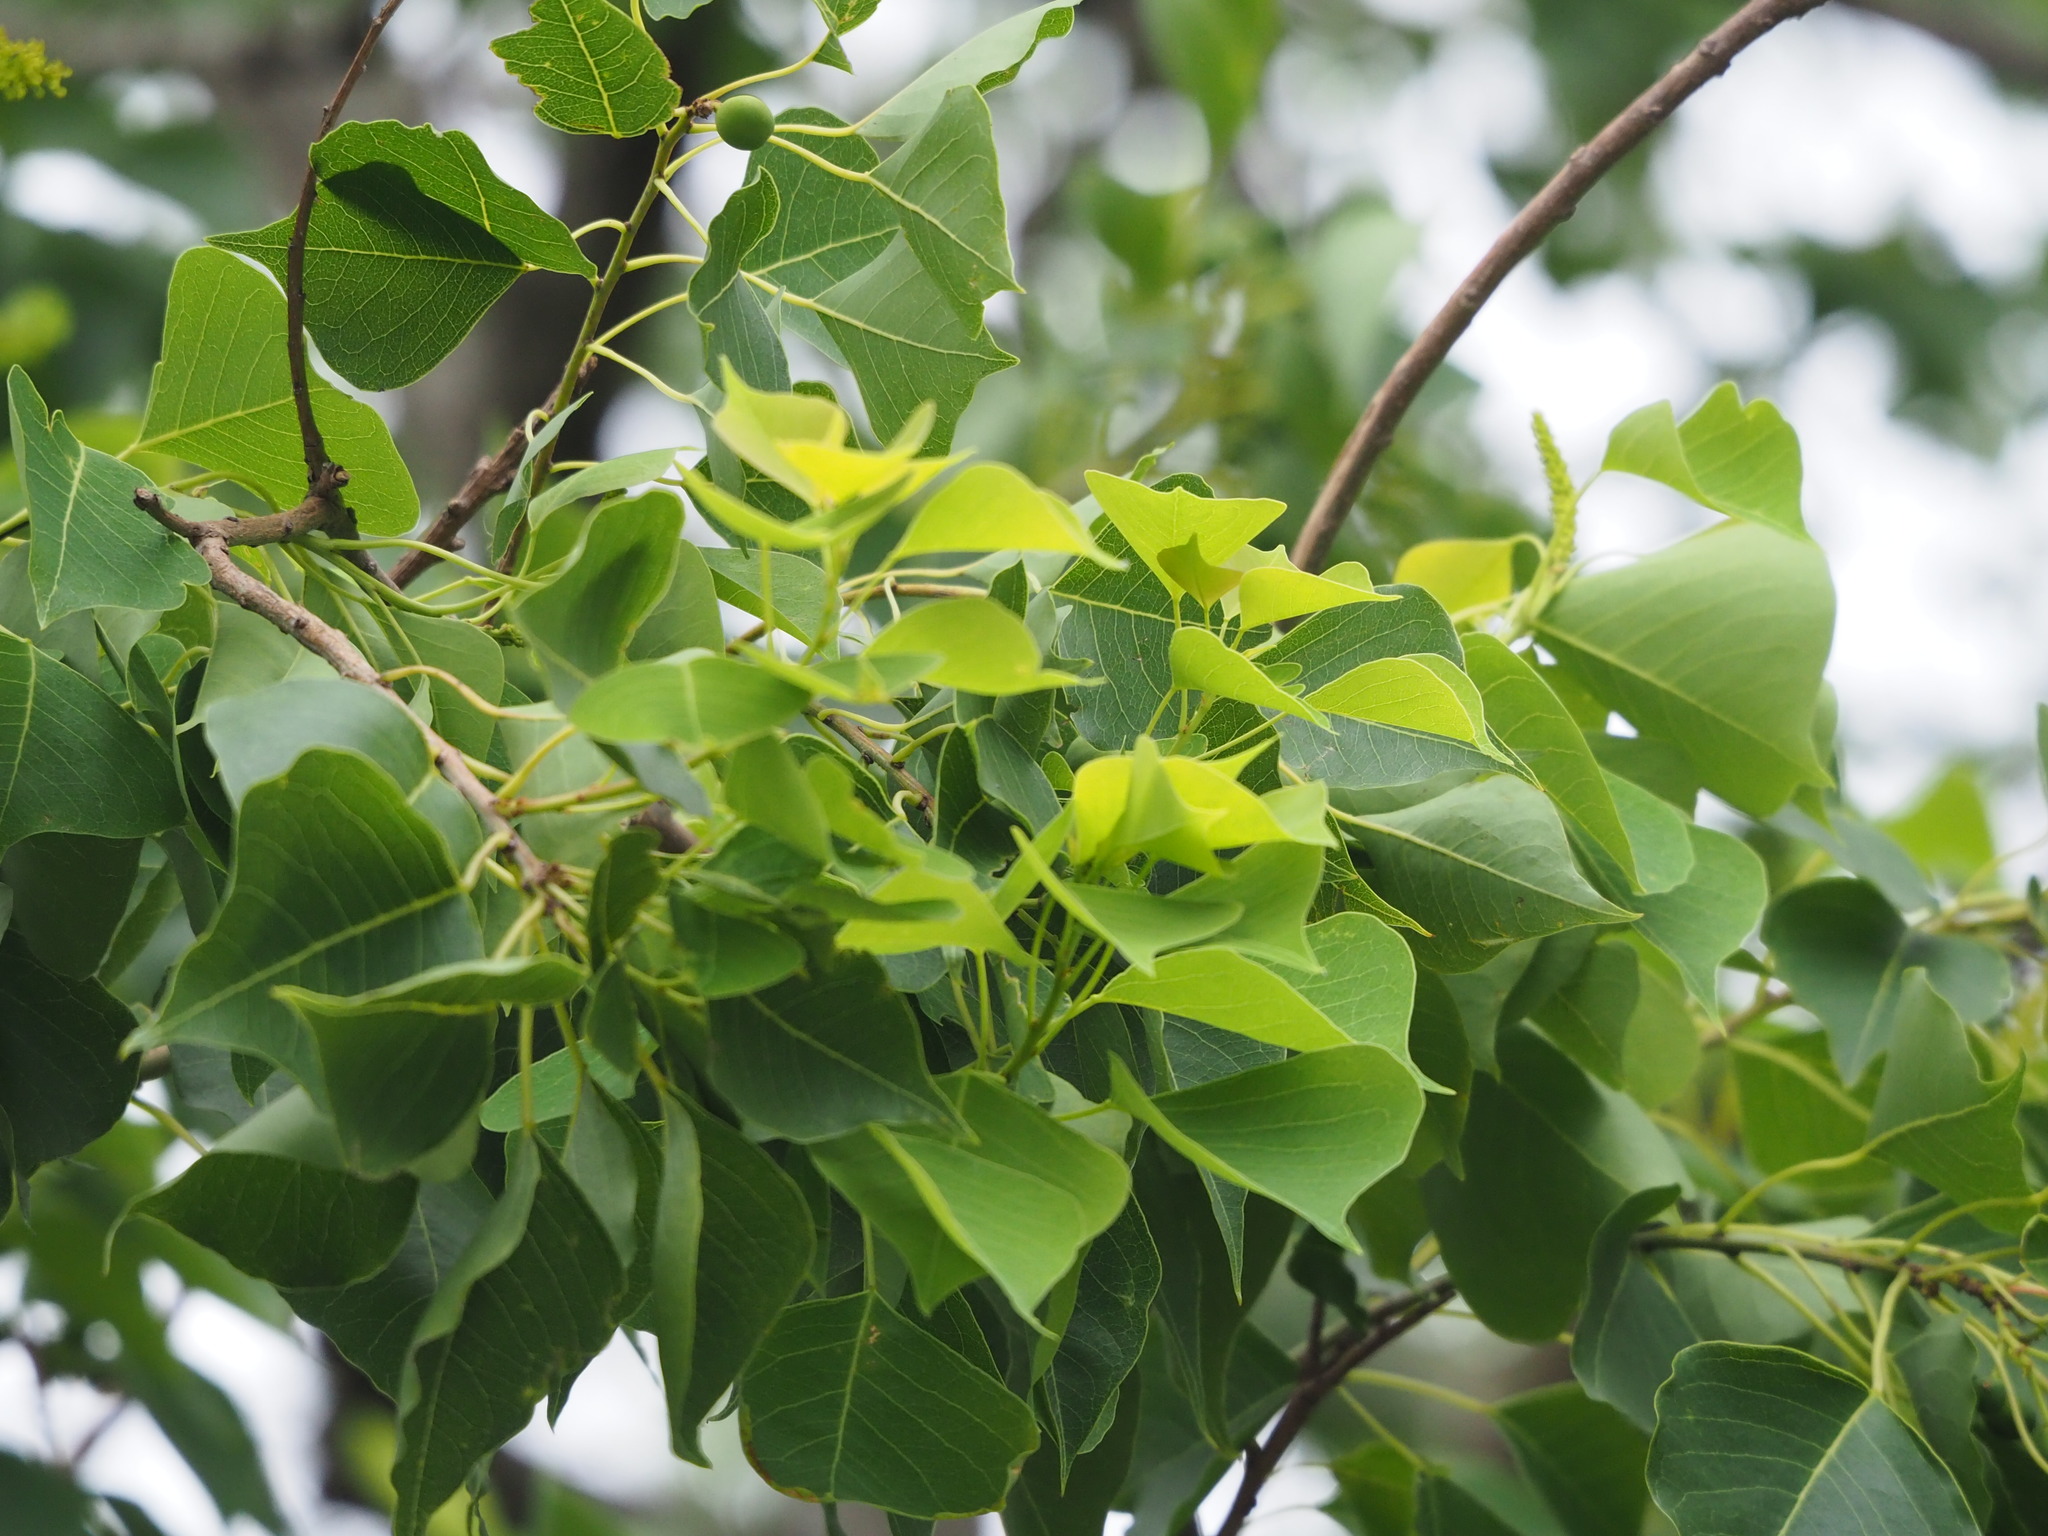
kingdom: Plantae
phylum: Tracheophyta
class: Magnoliopsida
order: Malpighiales
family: Euphorbiaceae
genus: Triadica
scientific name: Triadica sebifera
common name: Chinese tallow
